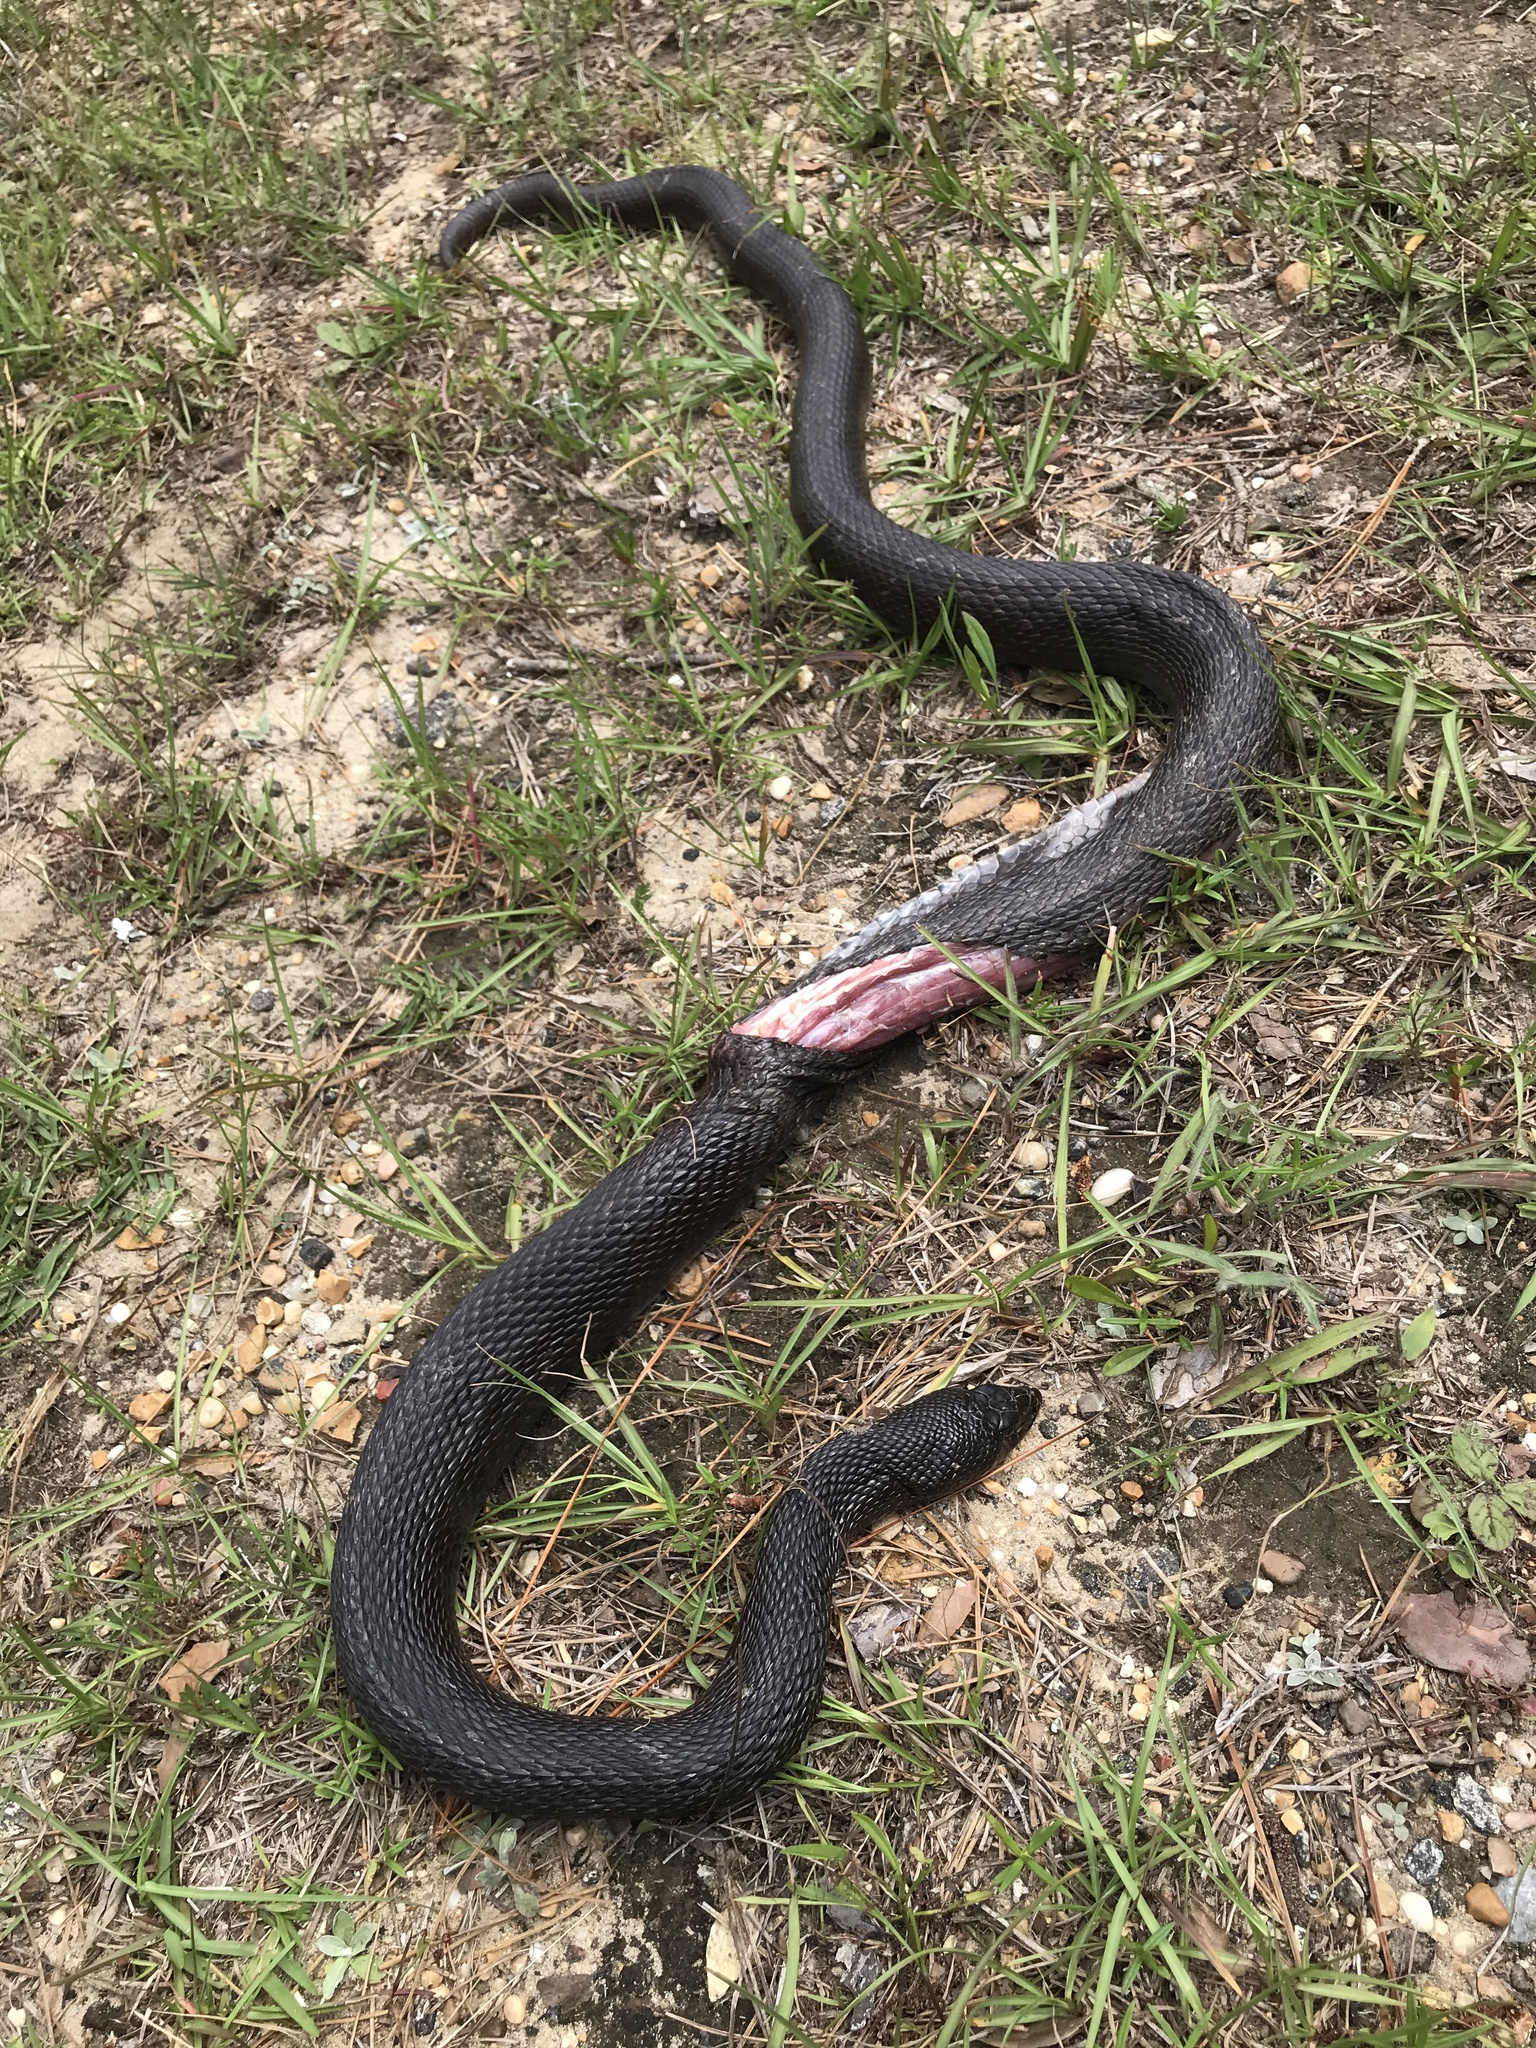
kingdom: Animalia
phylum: Chordata
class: Squamata
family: Colubridae
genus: Pituophis
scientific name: Pituophis melanoleucus
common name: Pine snake
